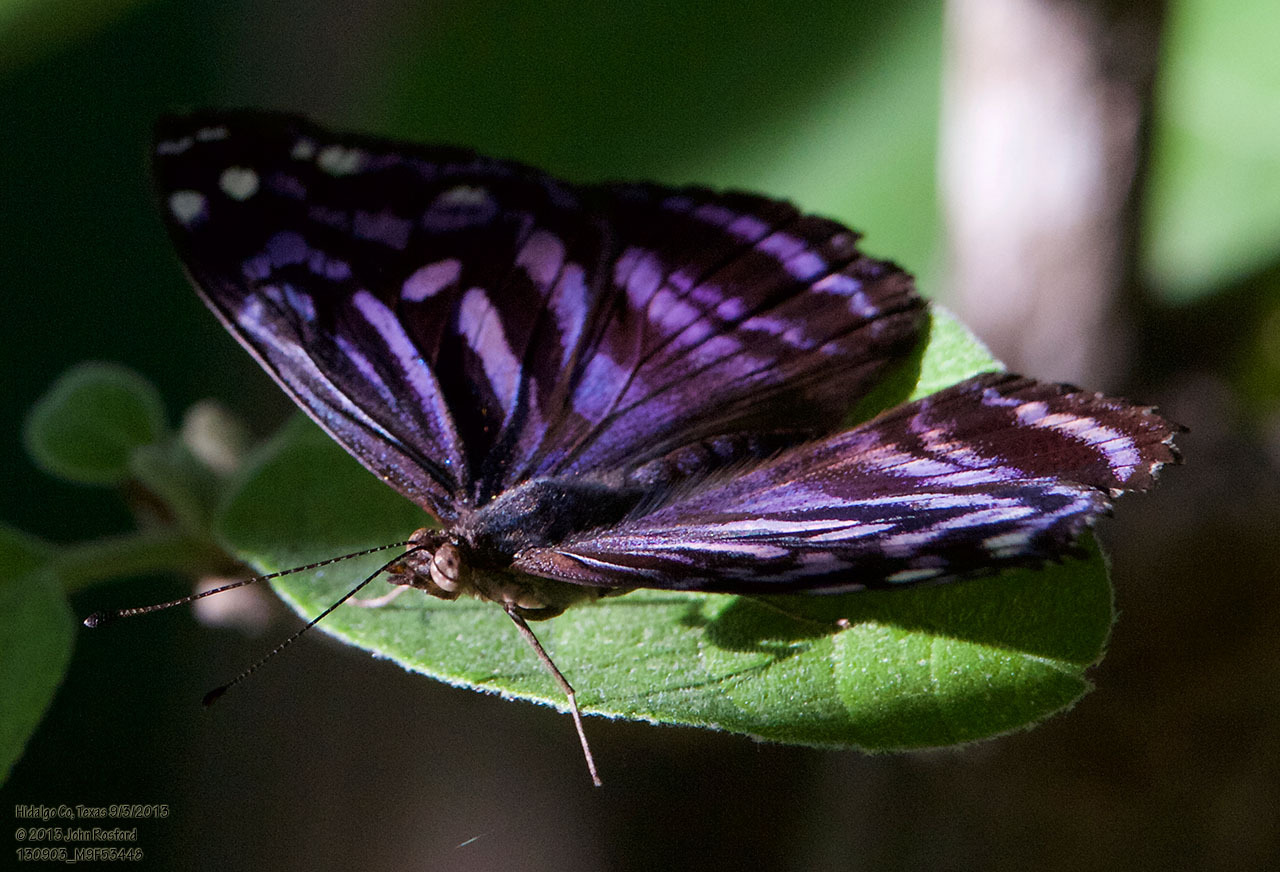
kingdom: Animalia
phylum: Arthropoda
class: Insecta
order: Lepidoptera
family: Nymphalidae
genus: Myscelia
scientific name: Myscelia ethusa
